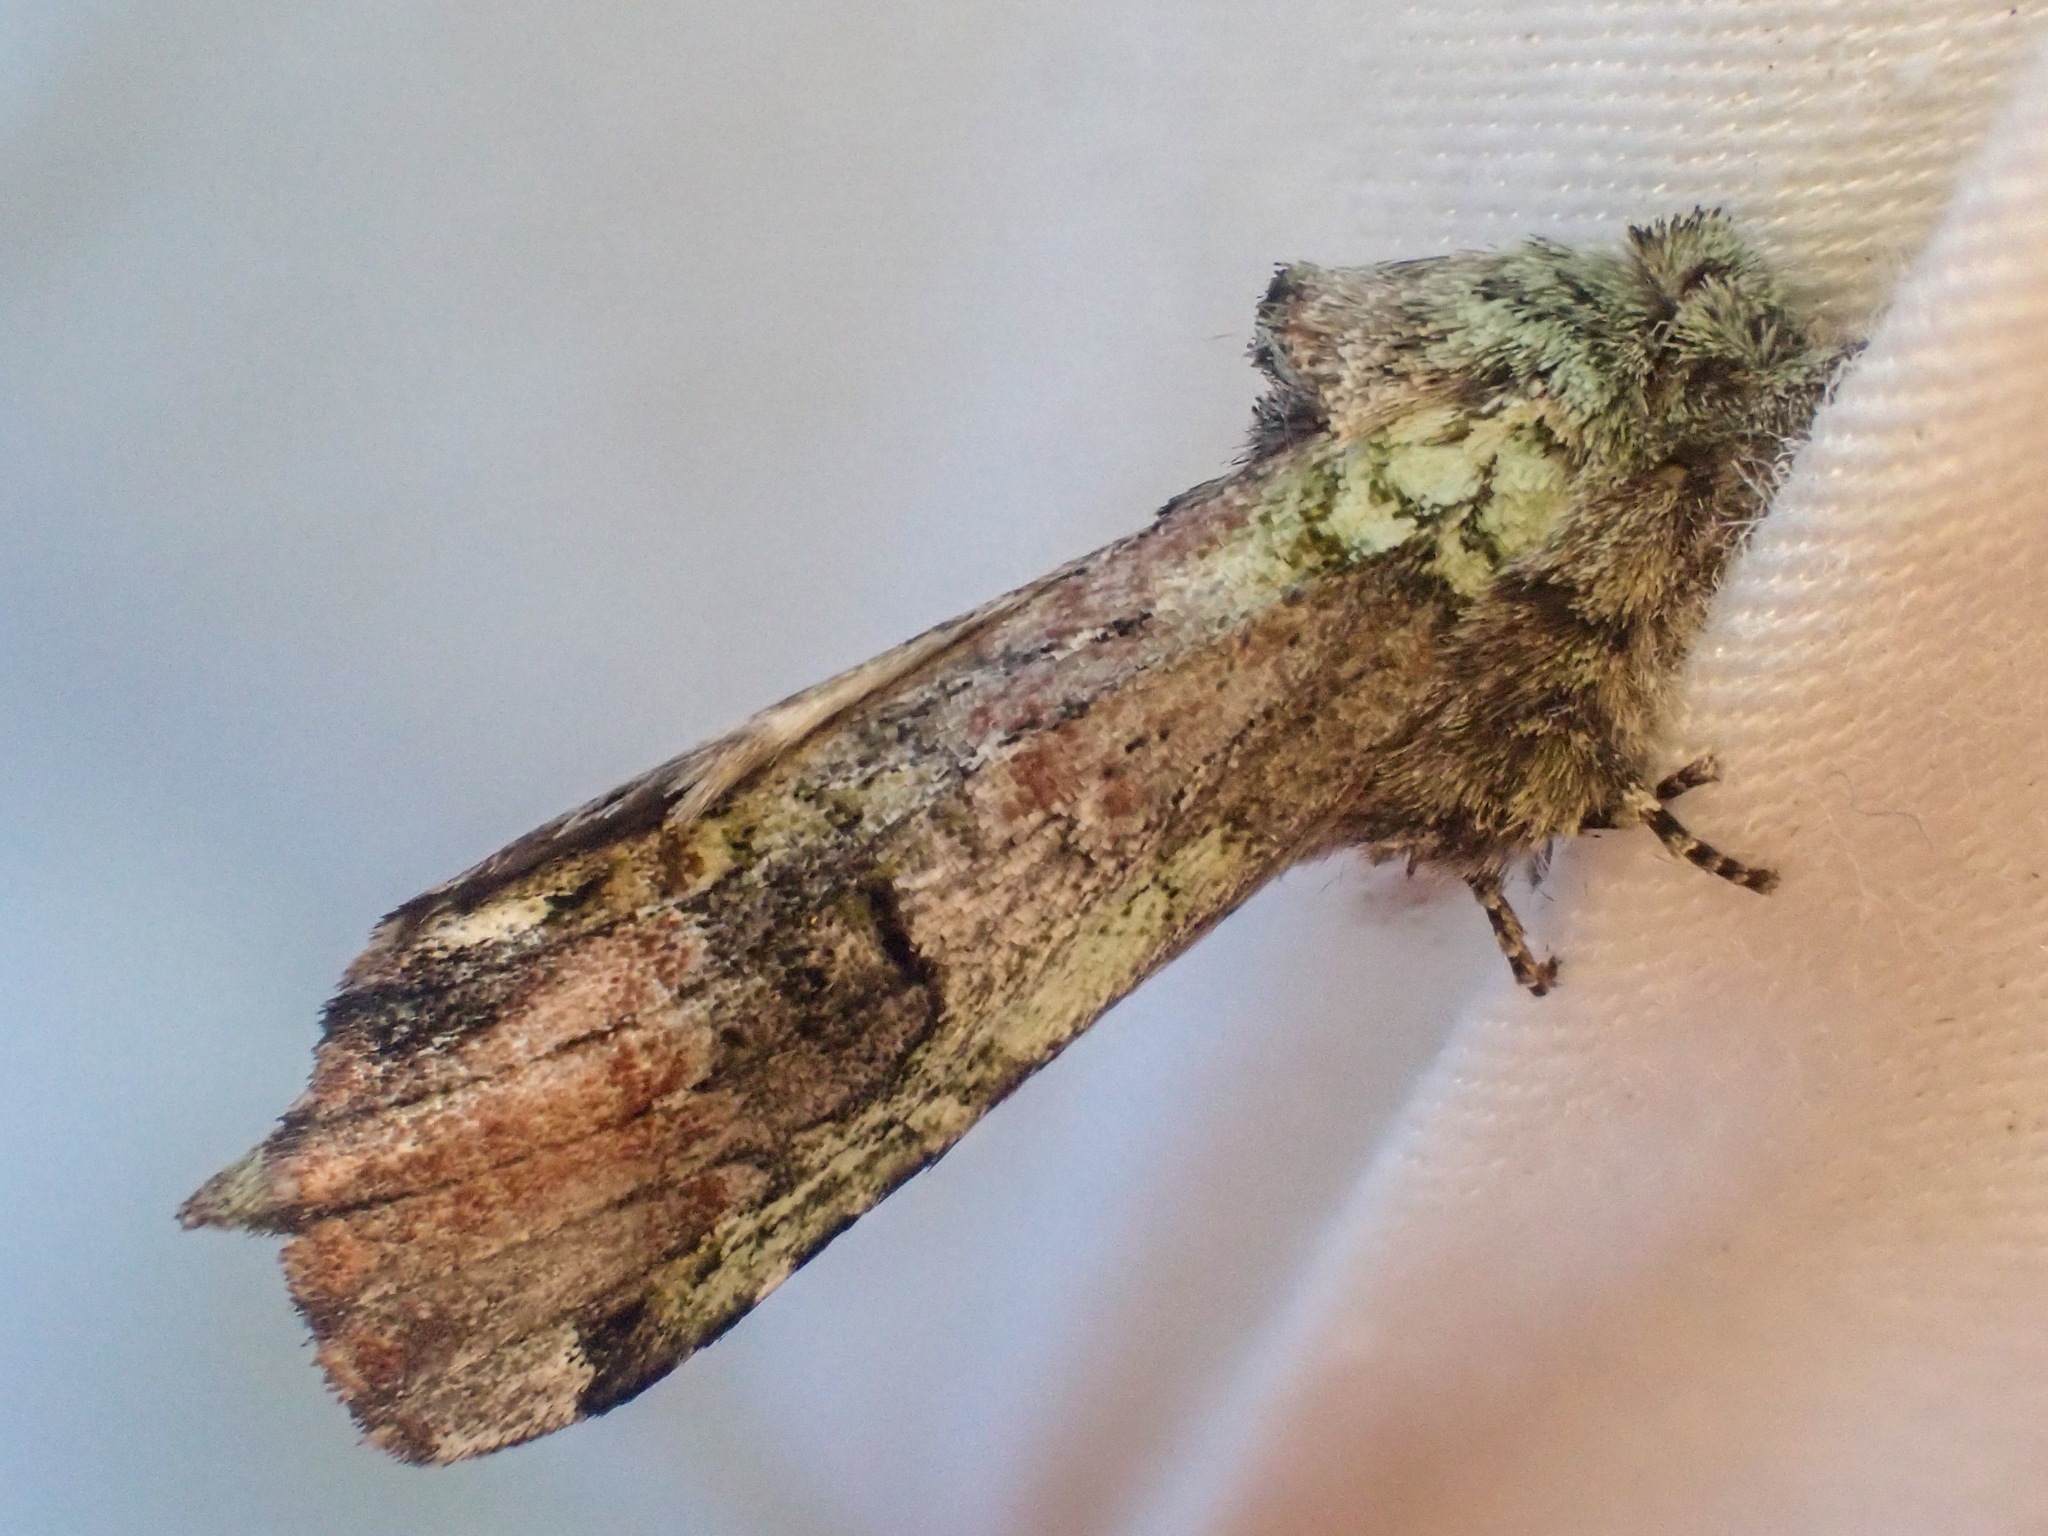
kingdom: Animalia
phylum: Arthropoda
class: Insecta
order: Lepidoptera
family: Notodontidae
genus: Schizura
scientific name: Schizura
